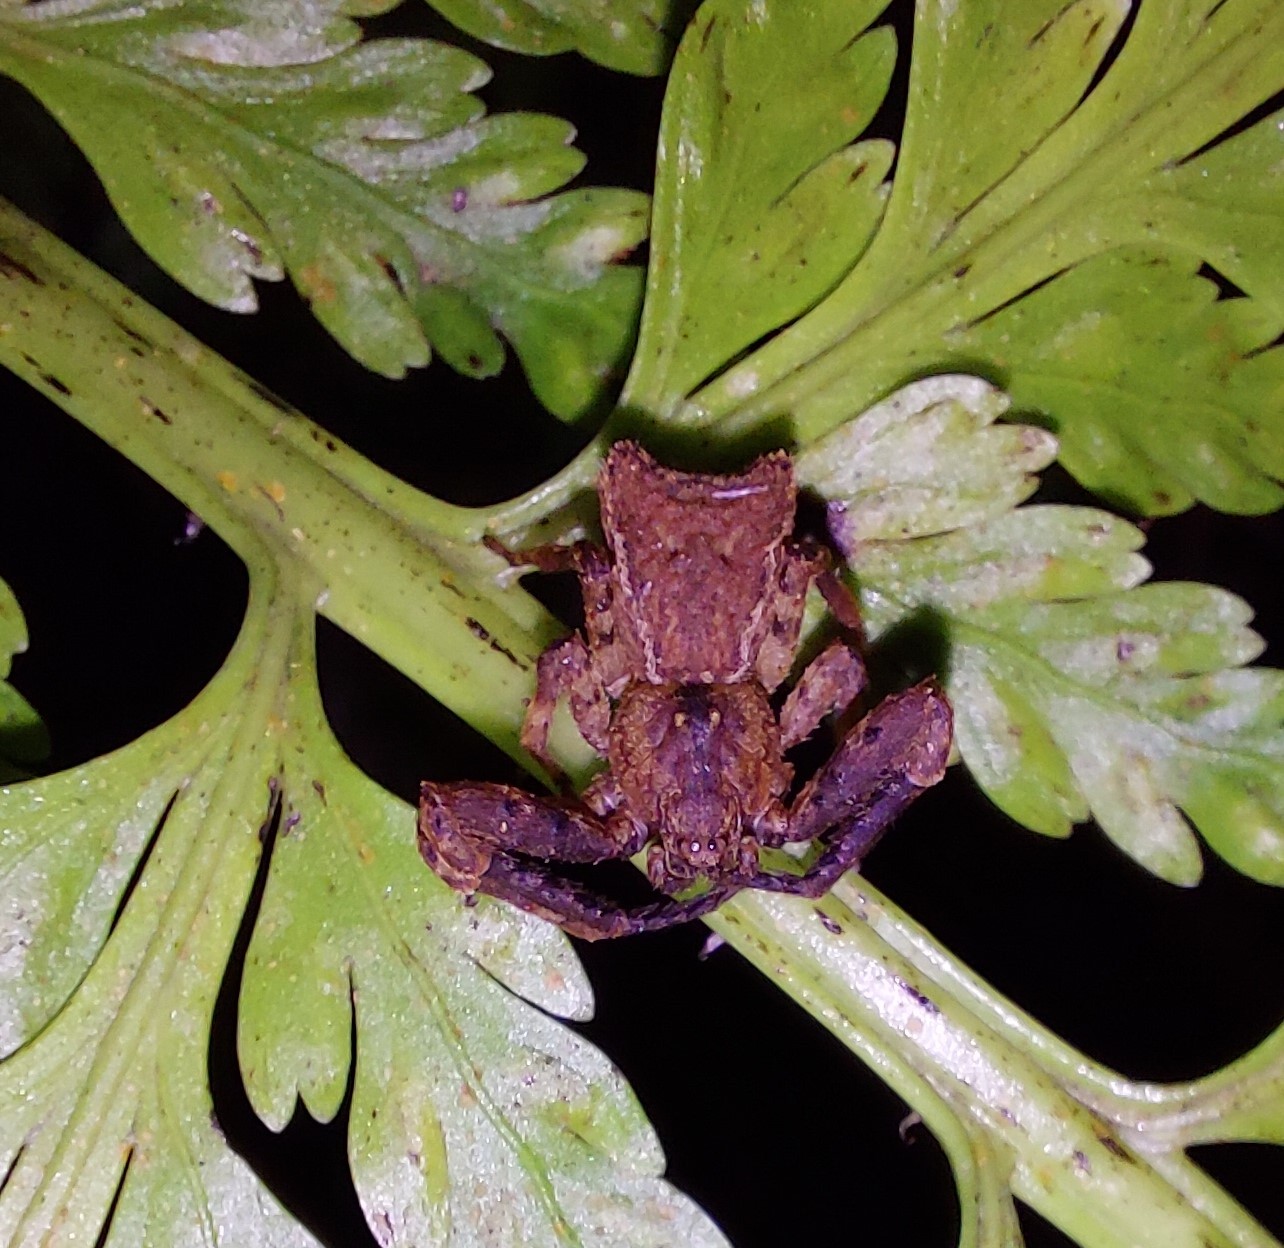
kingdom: Animalia
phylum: Arthropoda
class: Arachnida
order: Araneae
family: Thomisidae
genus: Sidymella
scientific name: Sidymella angularis
